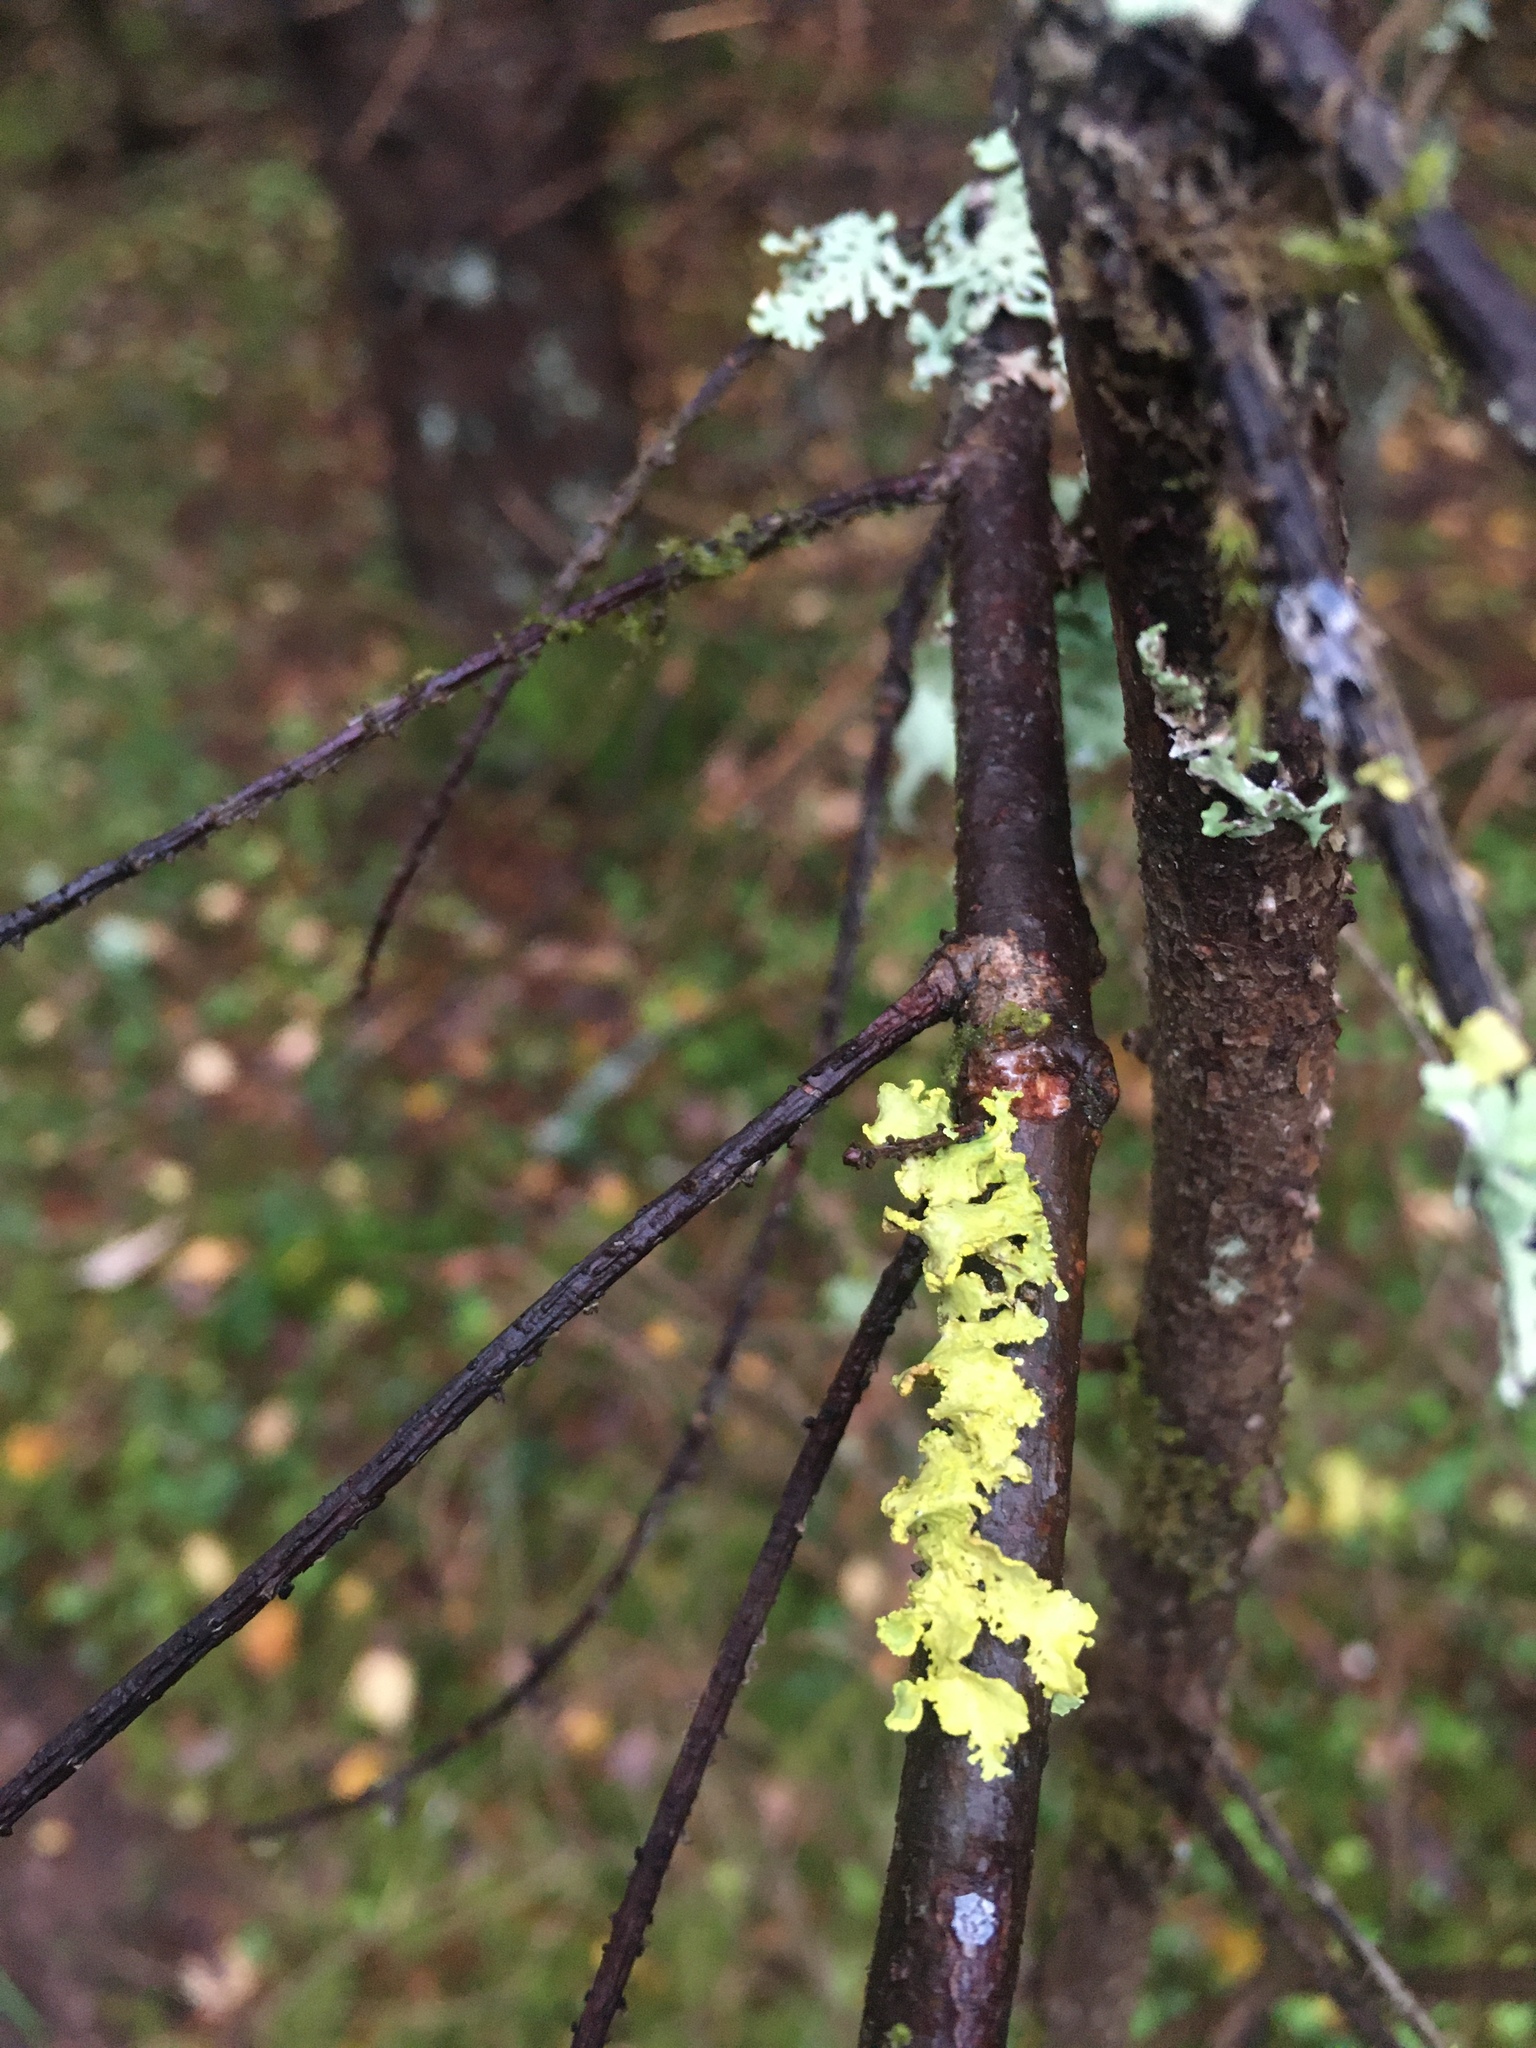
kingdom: Fungi
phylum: Ascomycota
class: Lecanoromycetes
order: Lecanorales
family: Parmeliaceae
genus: Vulpicida
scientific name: Vulpicida pinastri
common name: Powdered sunshine lichen
